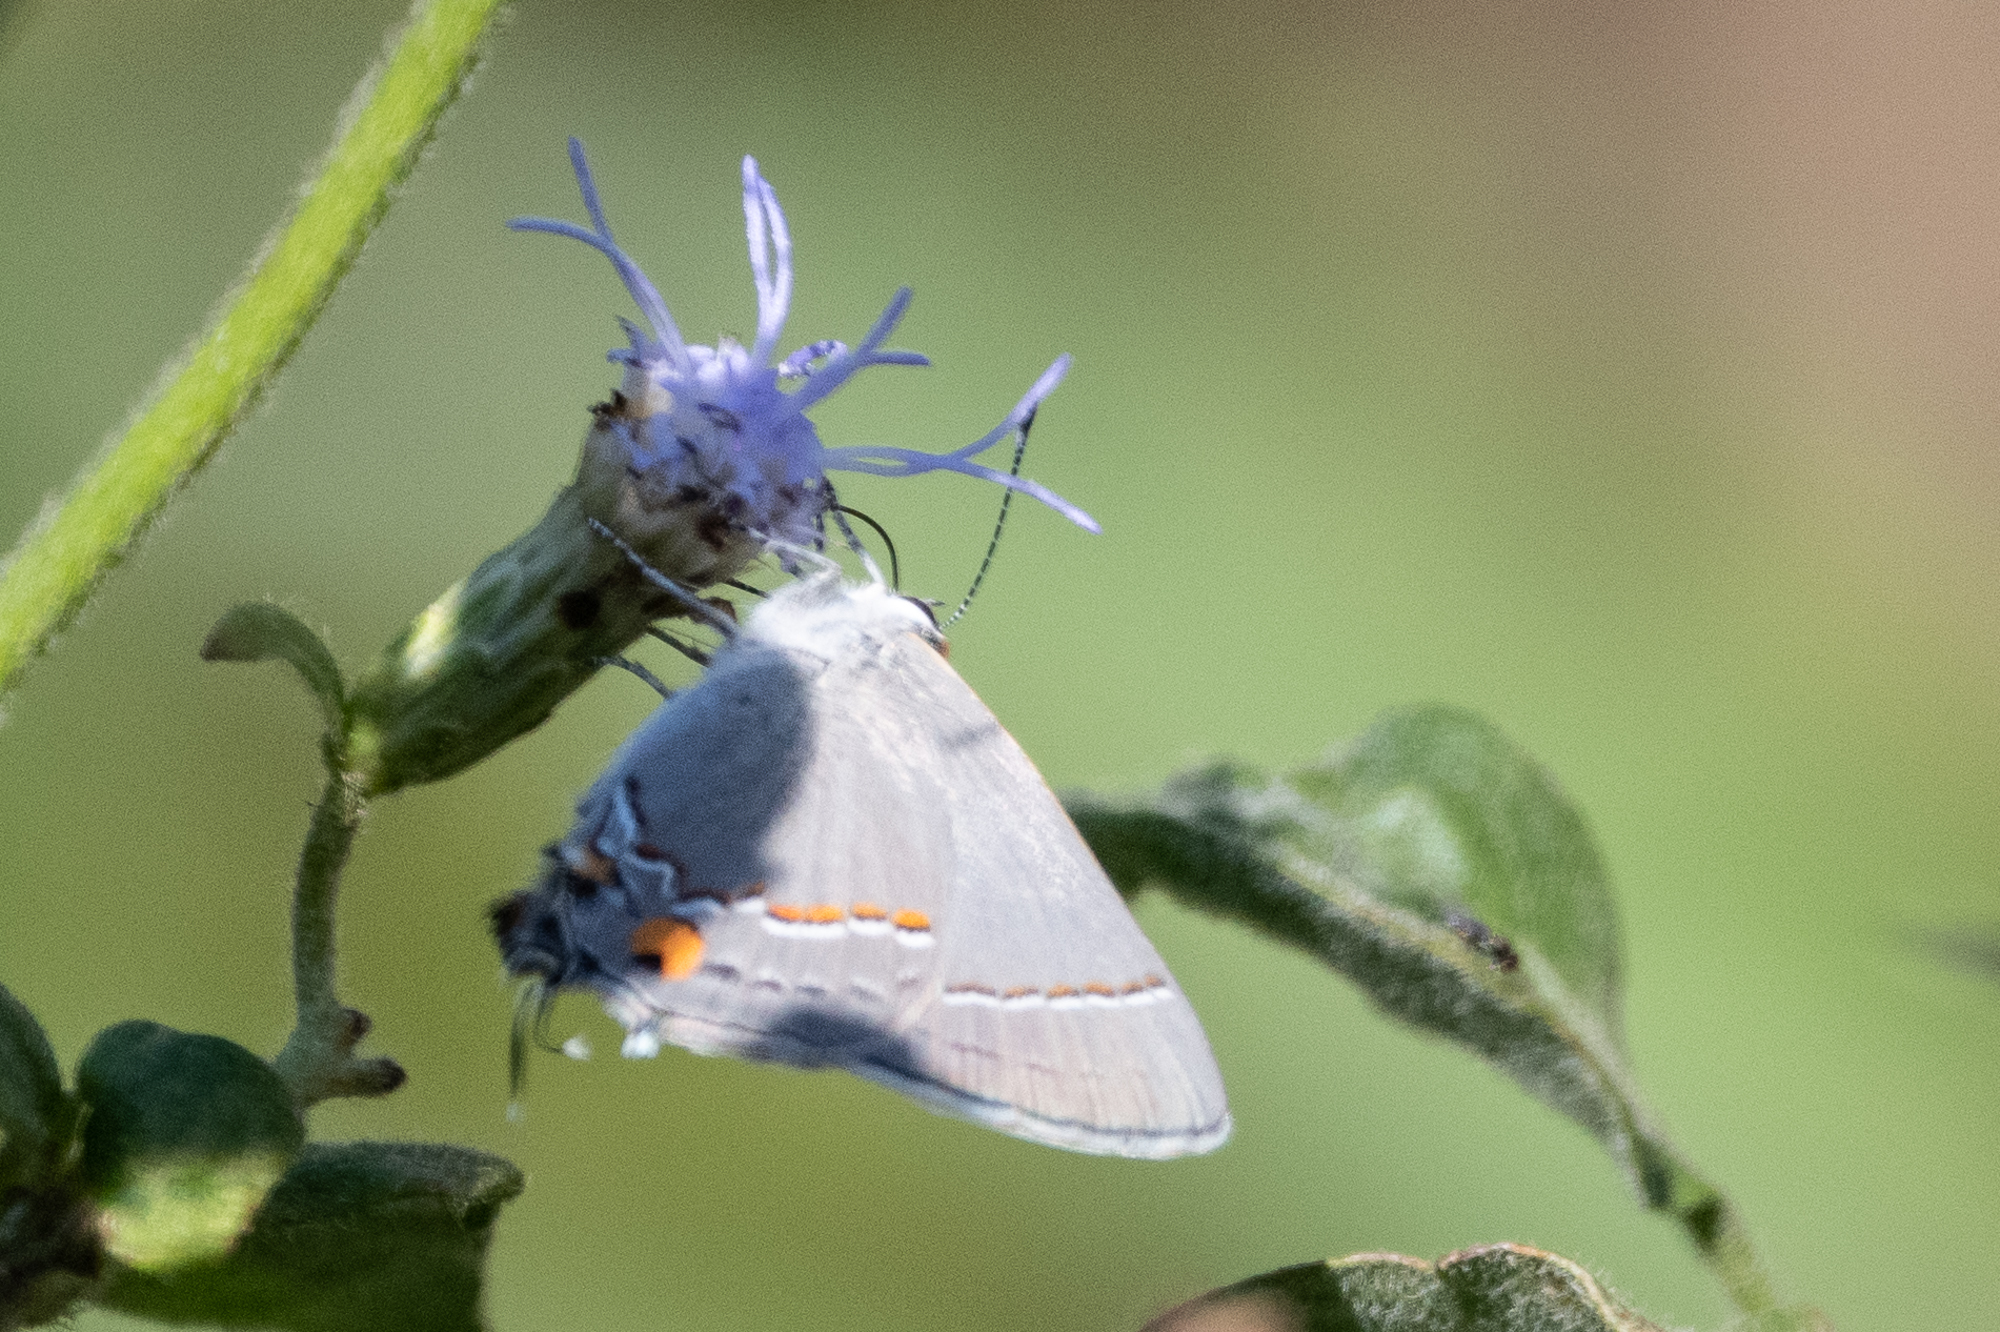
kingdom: Animalia
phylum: Arthropoda
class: Insecta
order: Lepidoptera
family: Lycaenidae
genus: Strymon
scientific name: Strymon melinus
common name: Gray hairstreak
